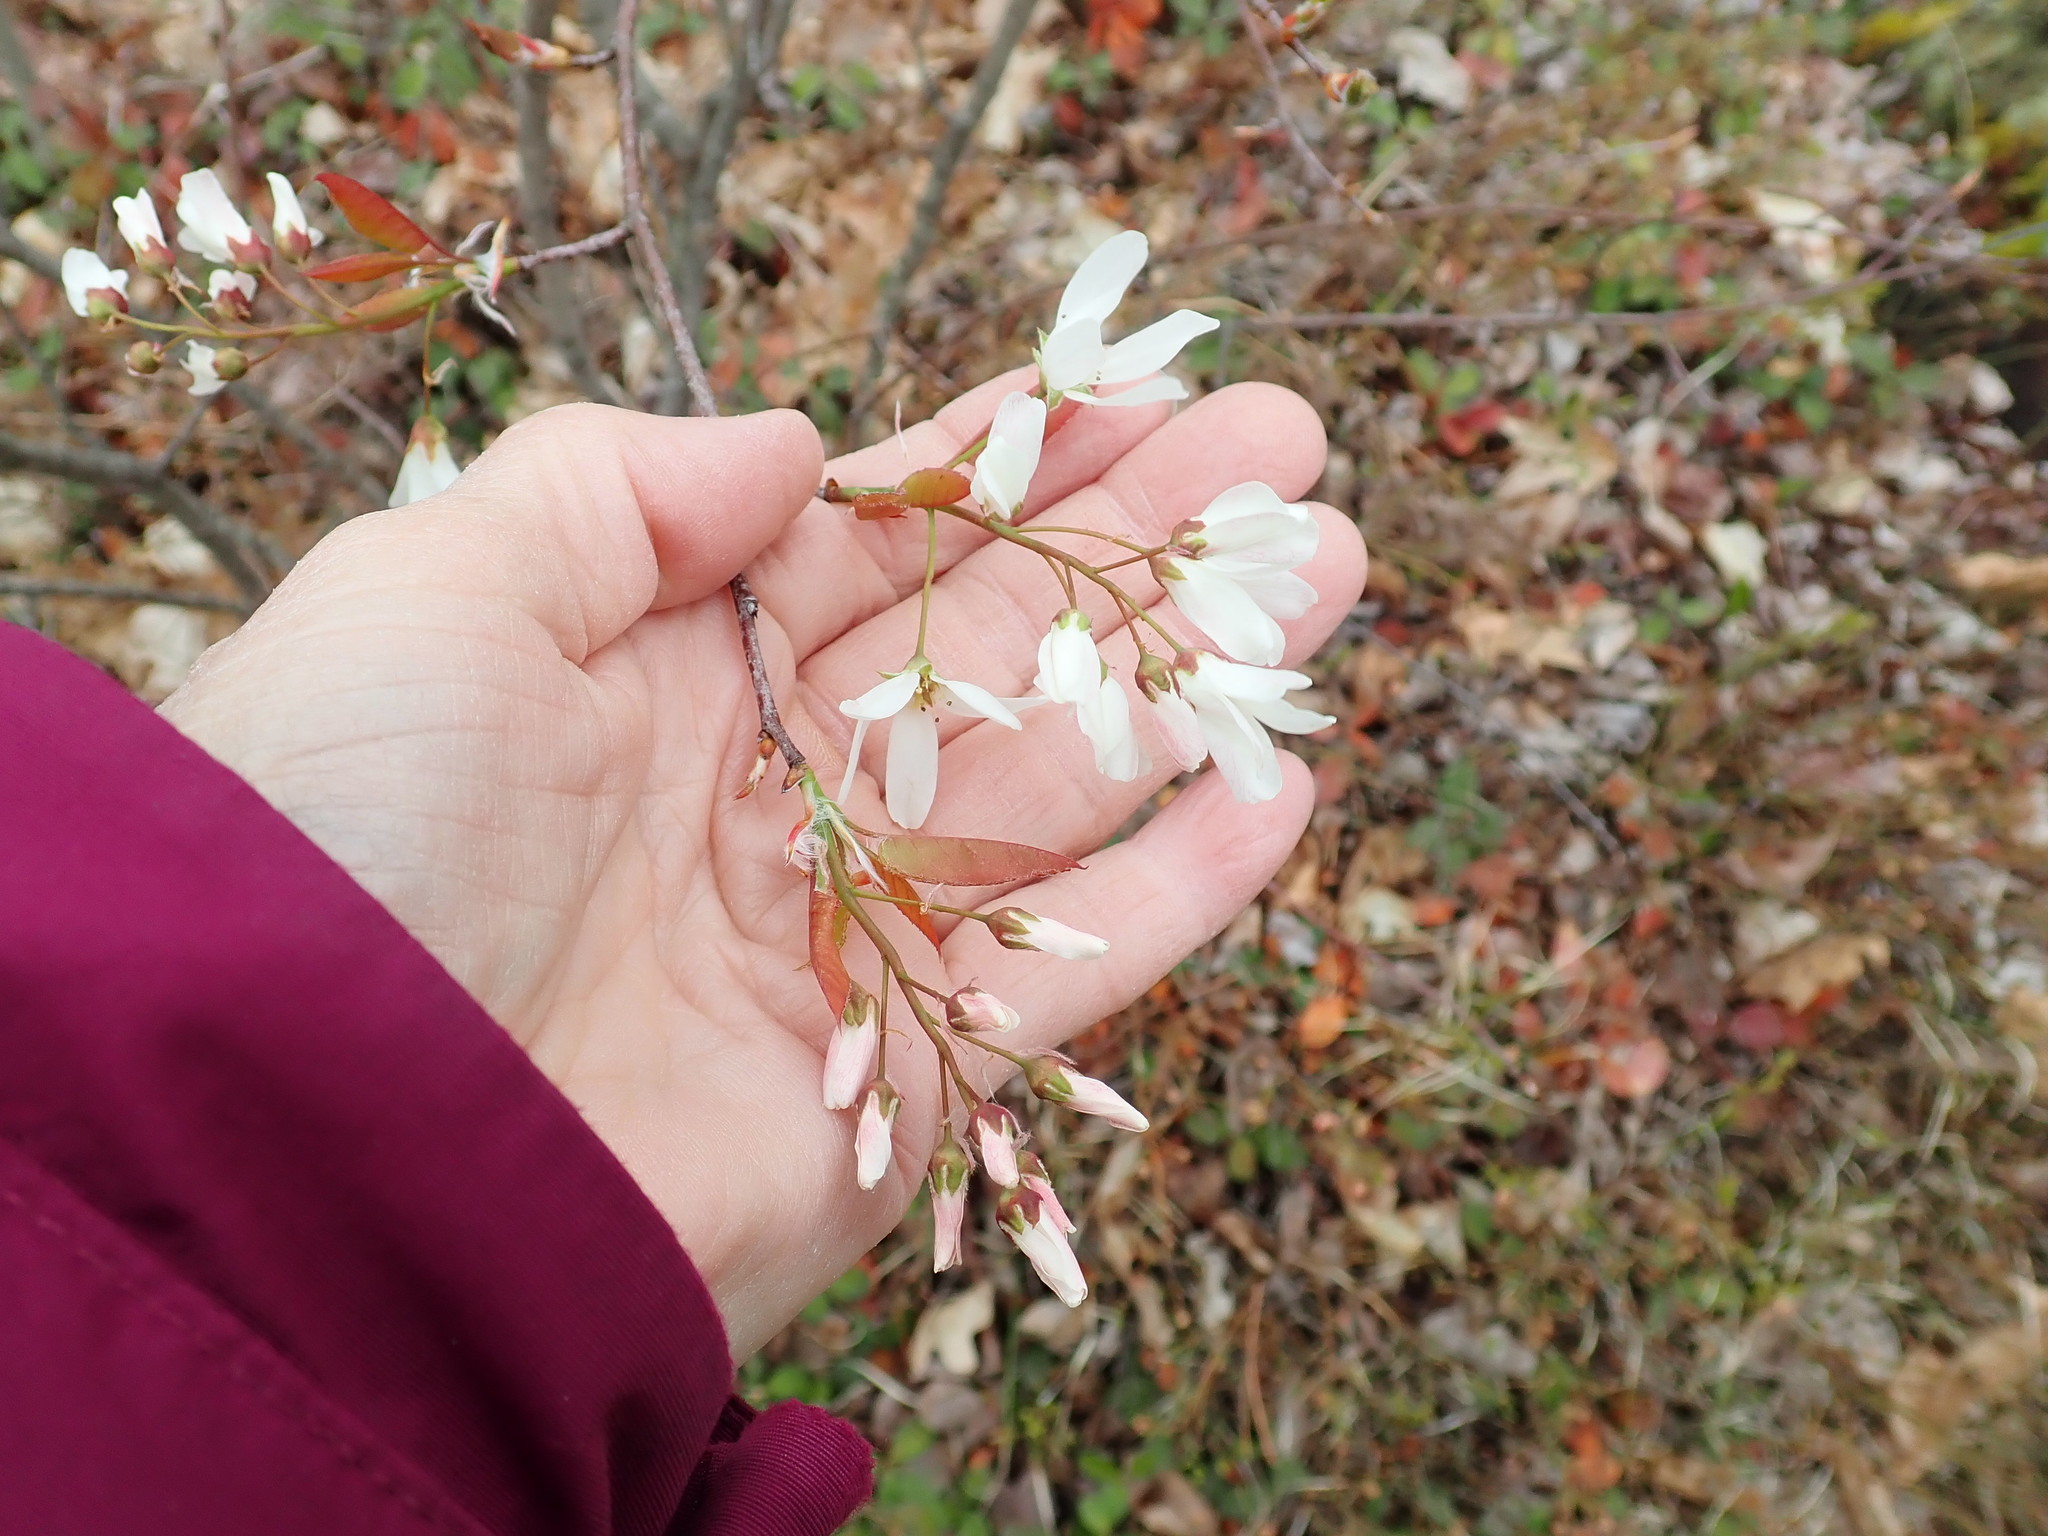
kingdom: Plantae
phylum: Tracheophyta
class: Magnoliopsida
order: Rosales
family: Rosaceae
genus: Amelanchier
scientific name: Amelanchier
